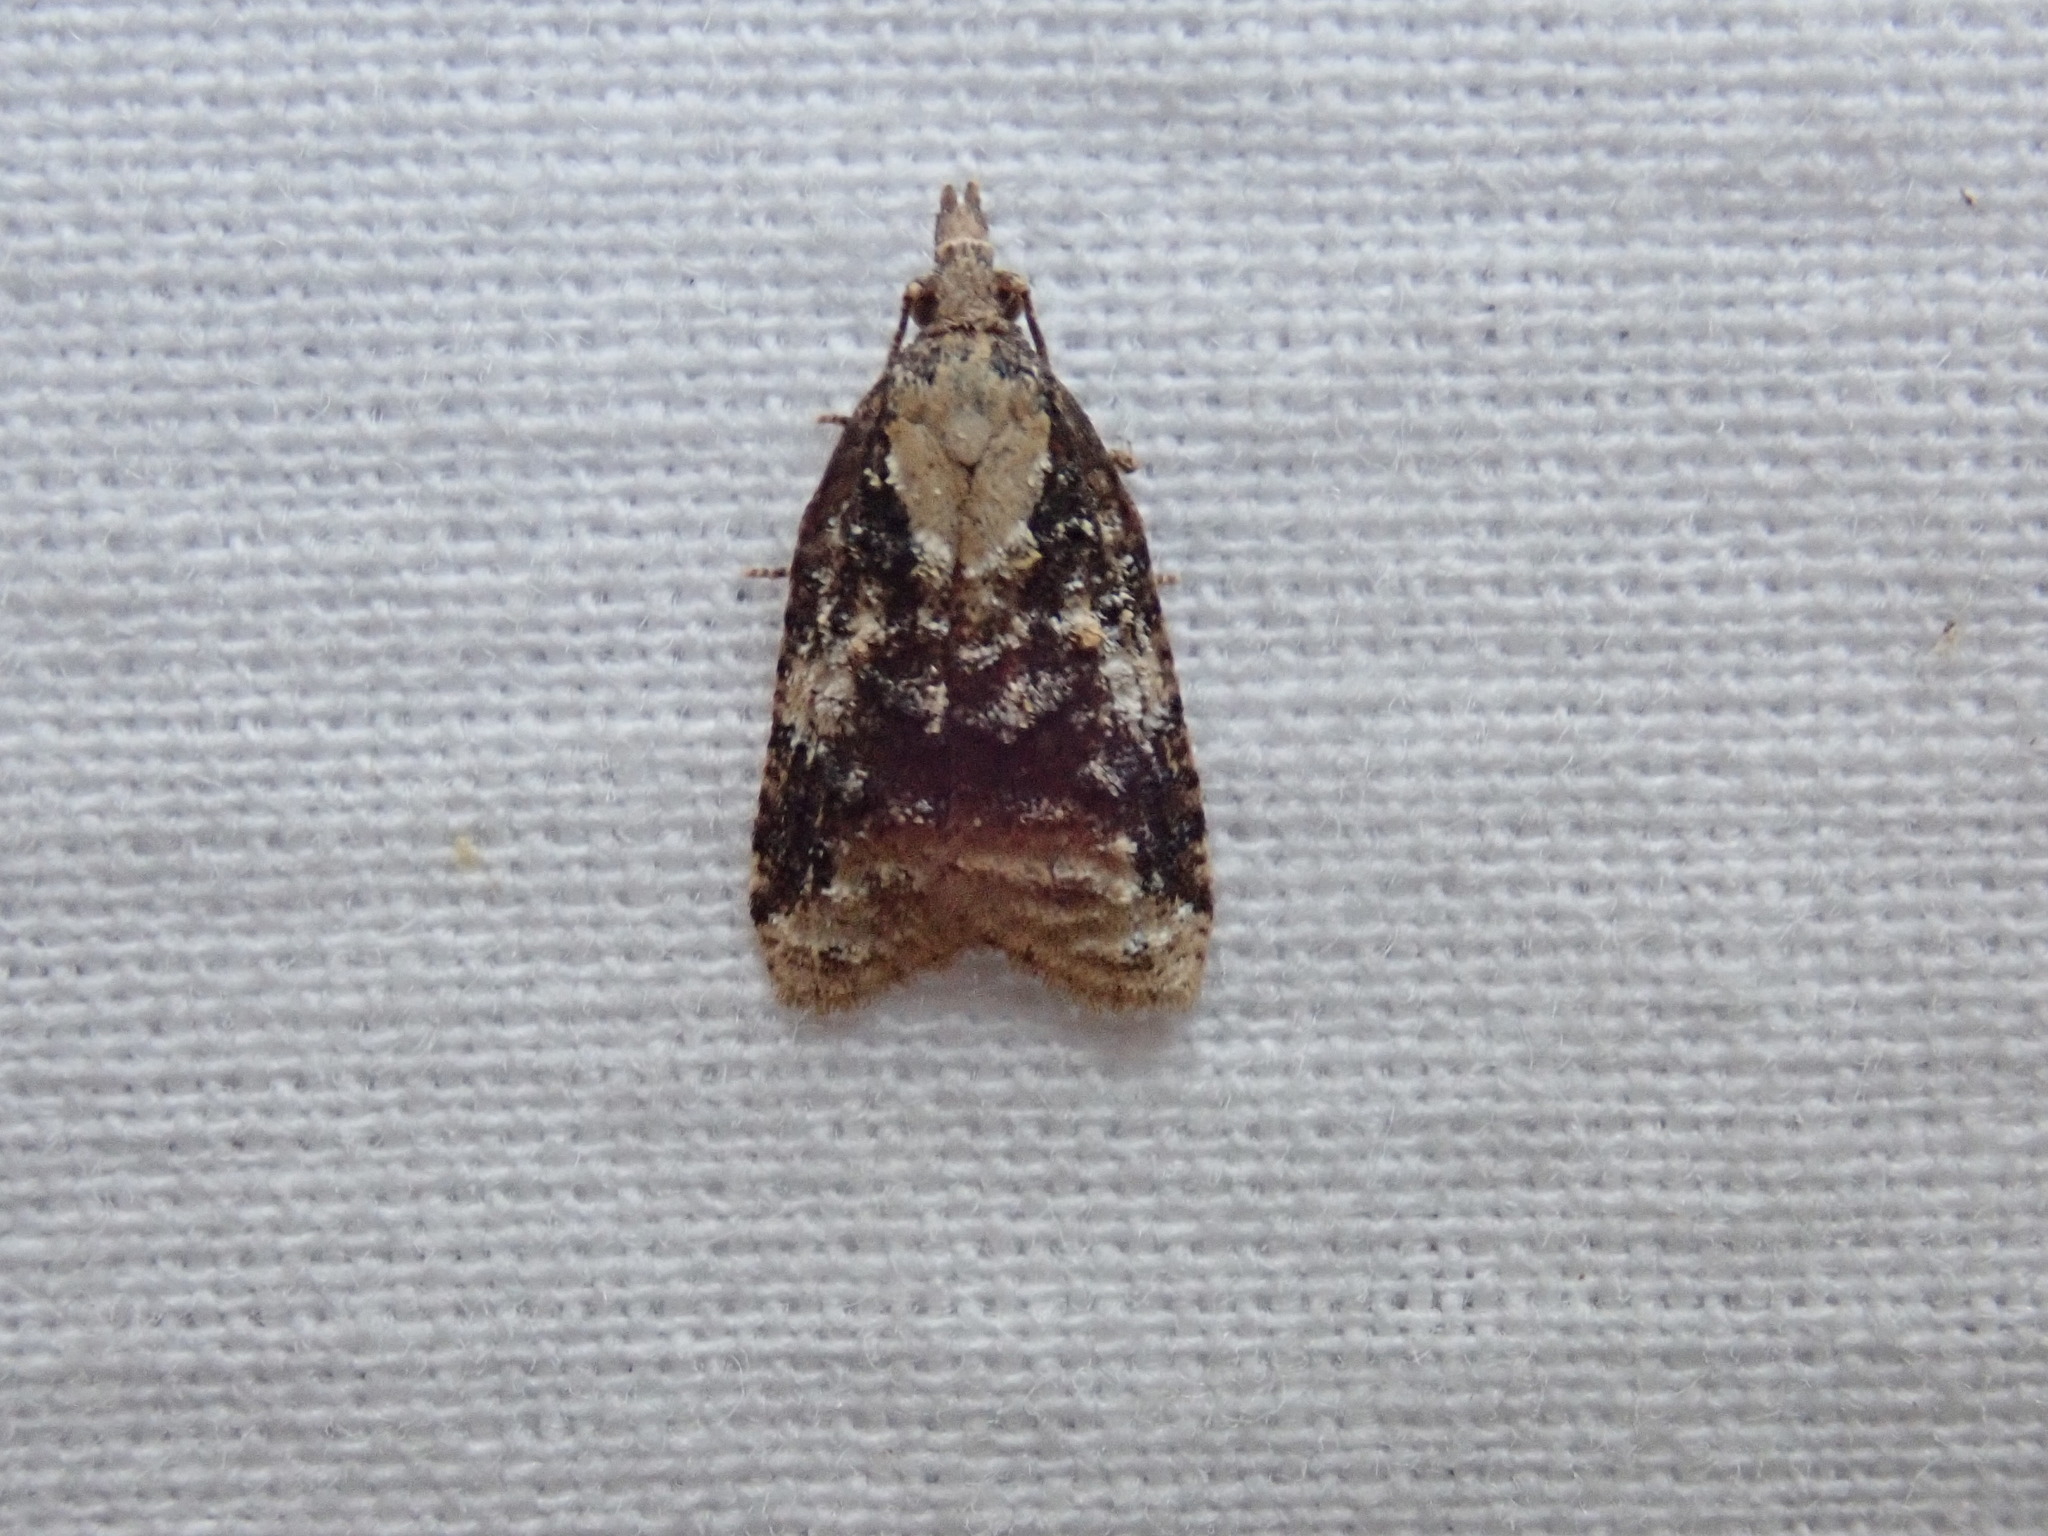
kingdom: Animalia
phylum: Arthropoda
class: Insecta
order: Lepidoptera
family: Tortricidae
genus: Platynota
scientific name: Platynota exasperatana
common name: Exasperating platynota moth
